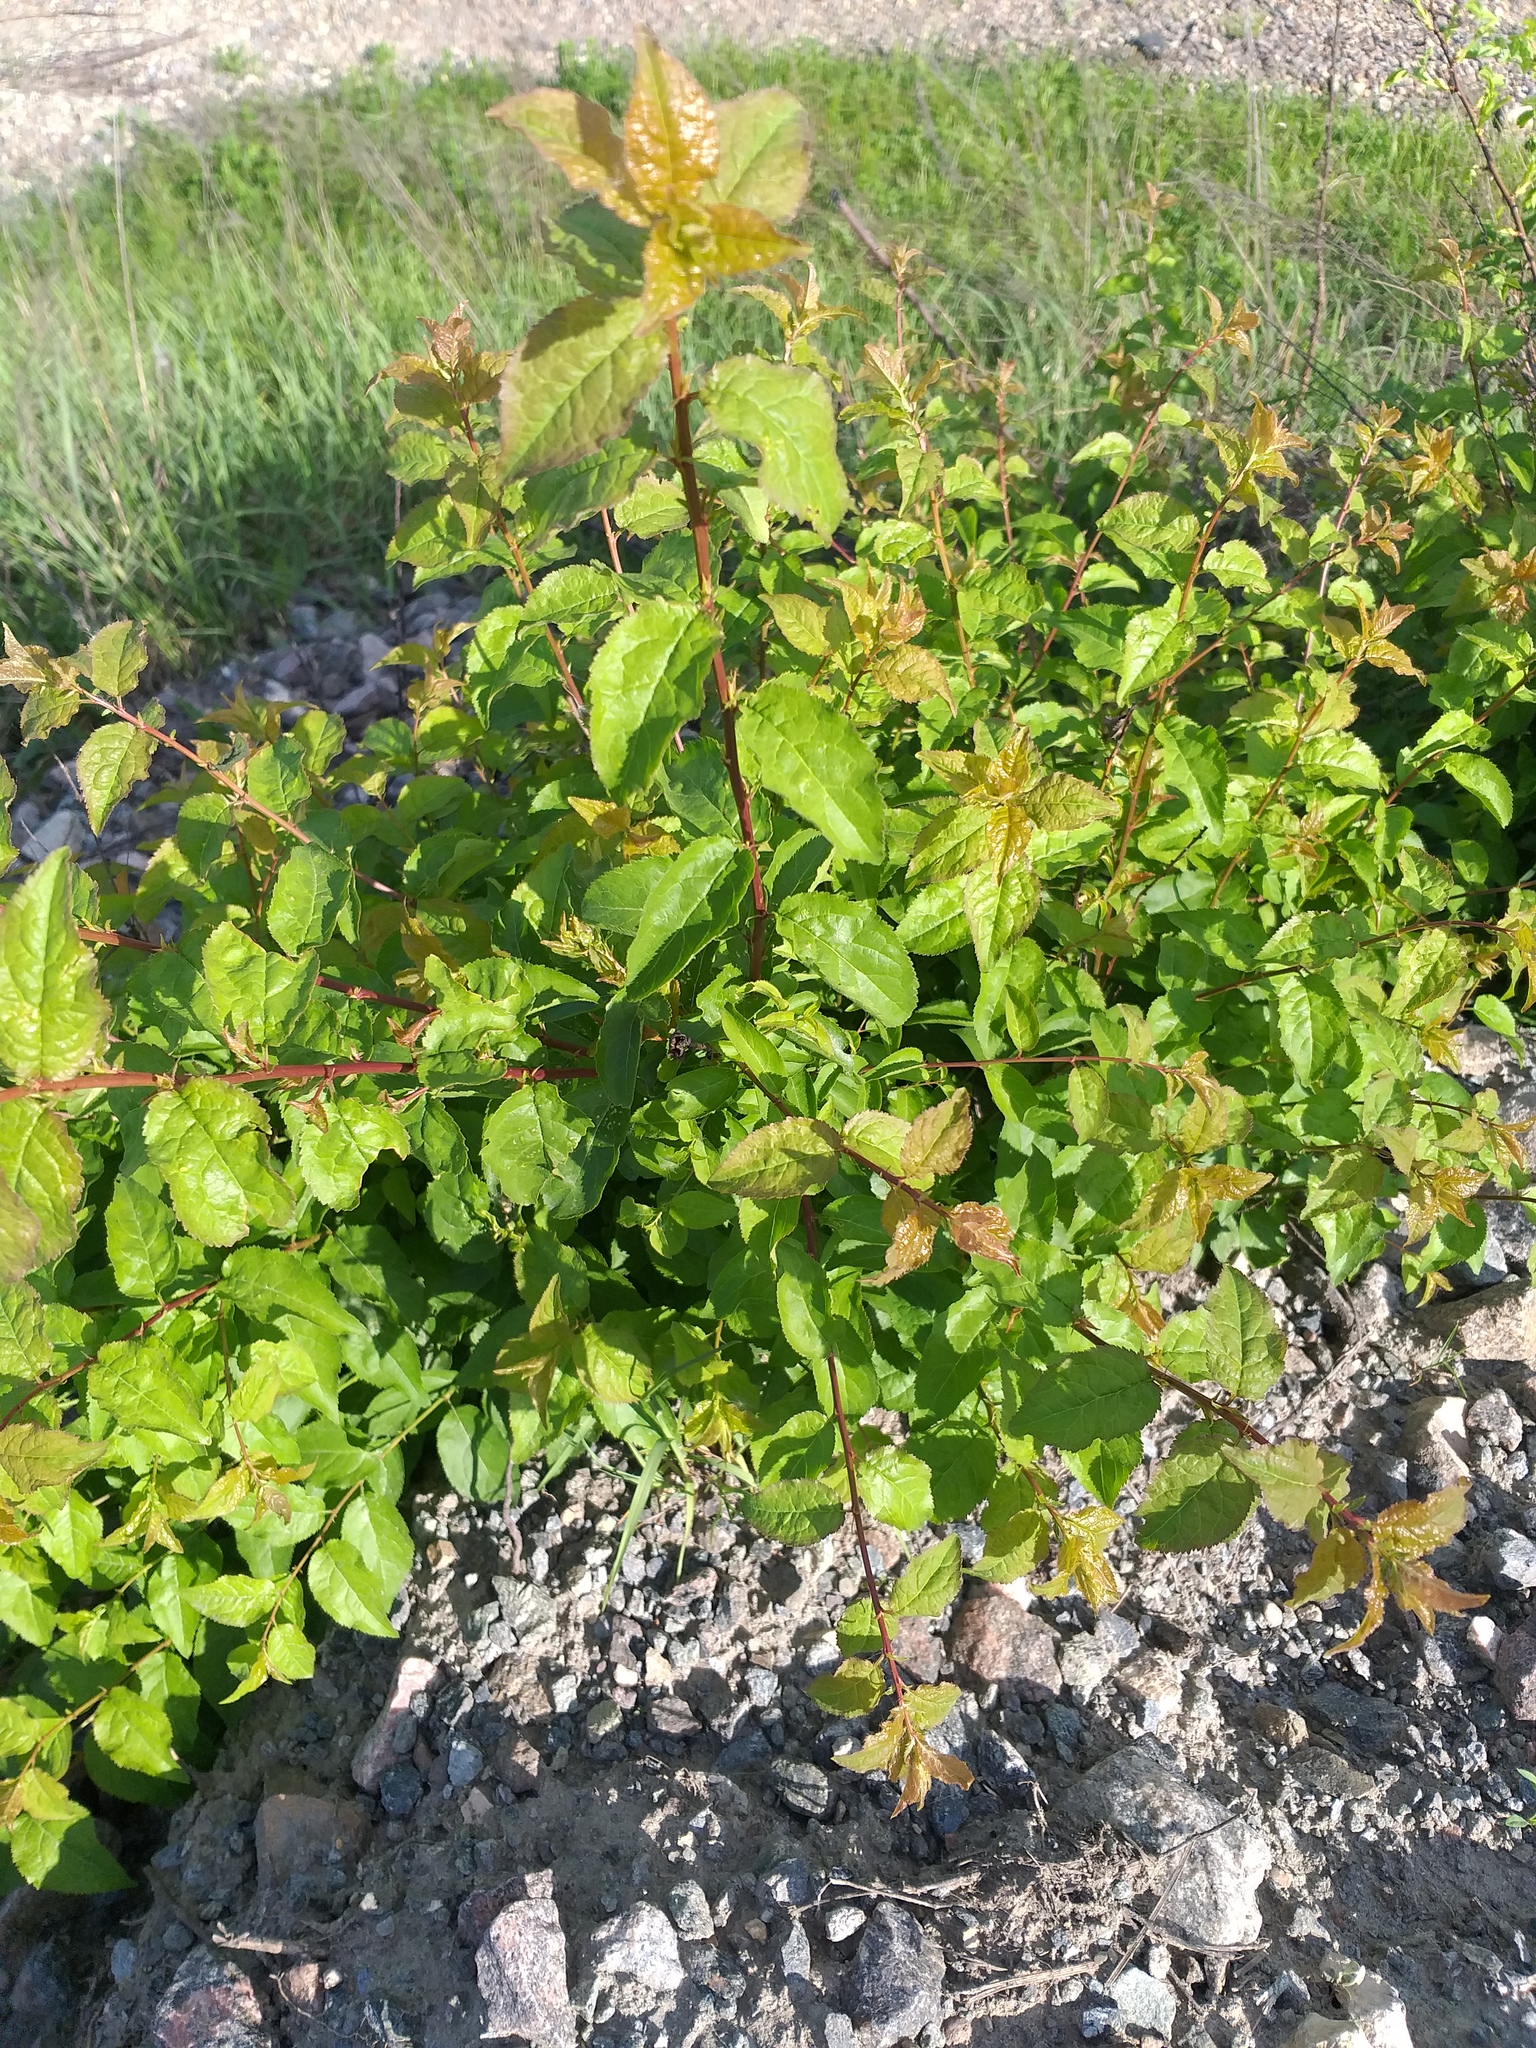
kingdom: Plantae
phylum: Tracheophyta
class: Magnoliopsida
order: Rosales
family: Rosaceae
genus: Prunus
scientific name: Prunus cerasifera
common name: Cherry plum
